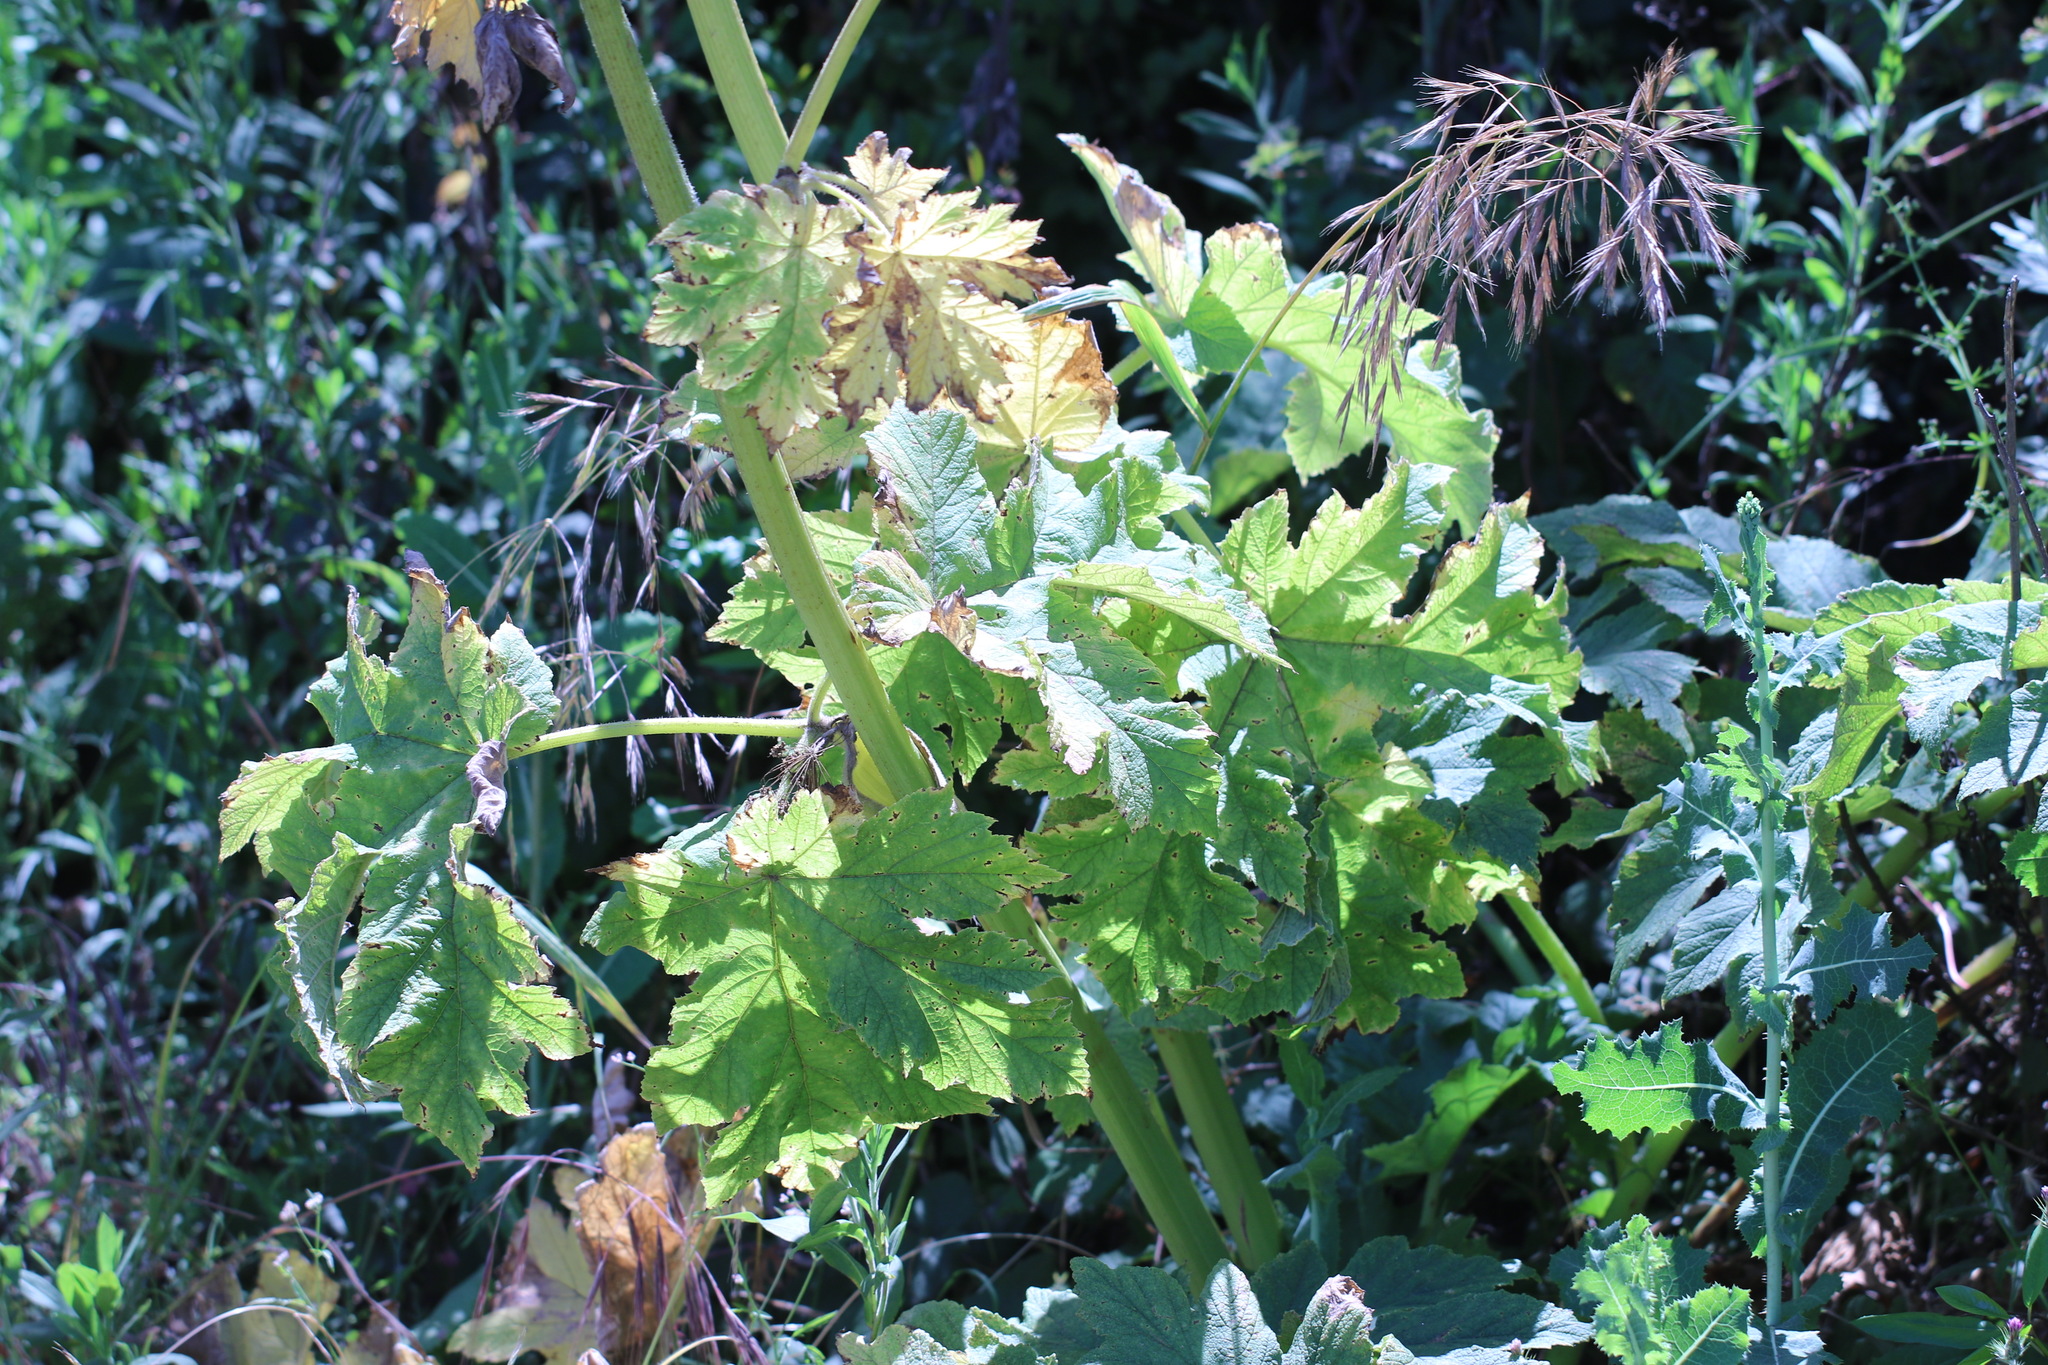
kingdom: Plantae
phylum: Tracheophyta
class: Magnoliopsida
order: Apiales
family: Apiaceae
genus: Heracleum
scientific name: Heracleum maximum
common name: American cow parsnip
